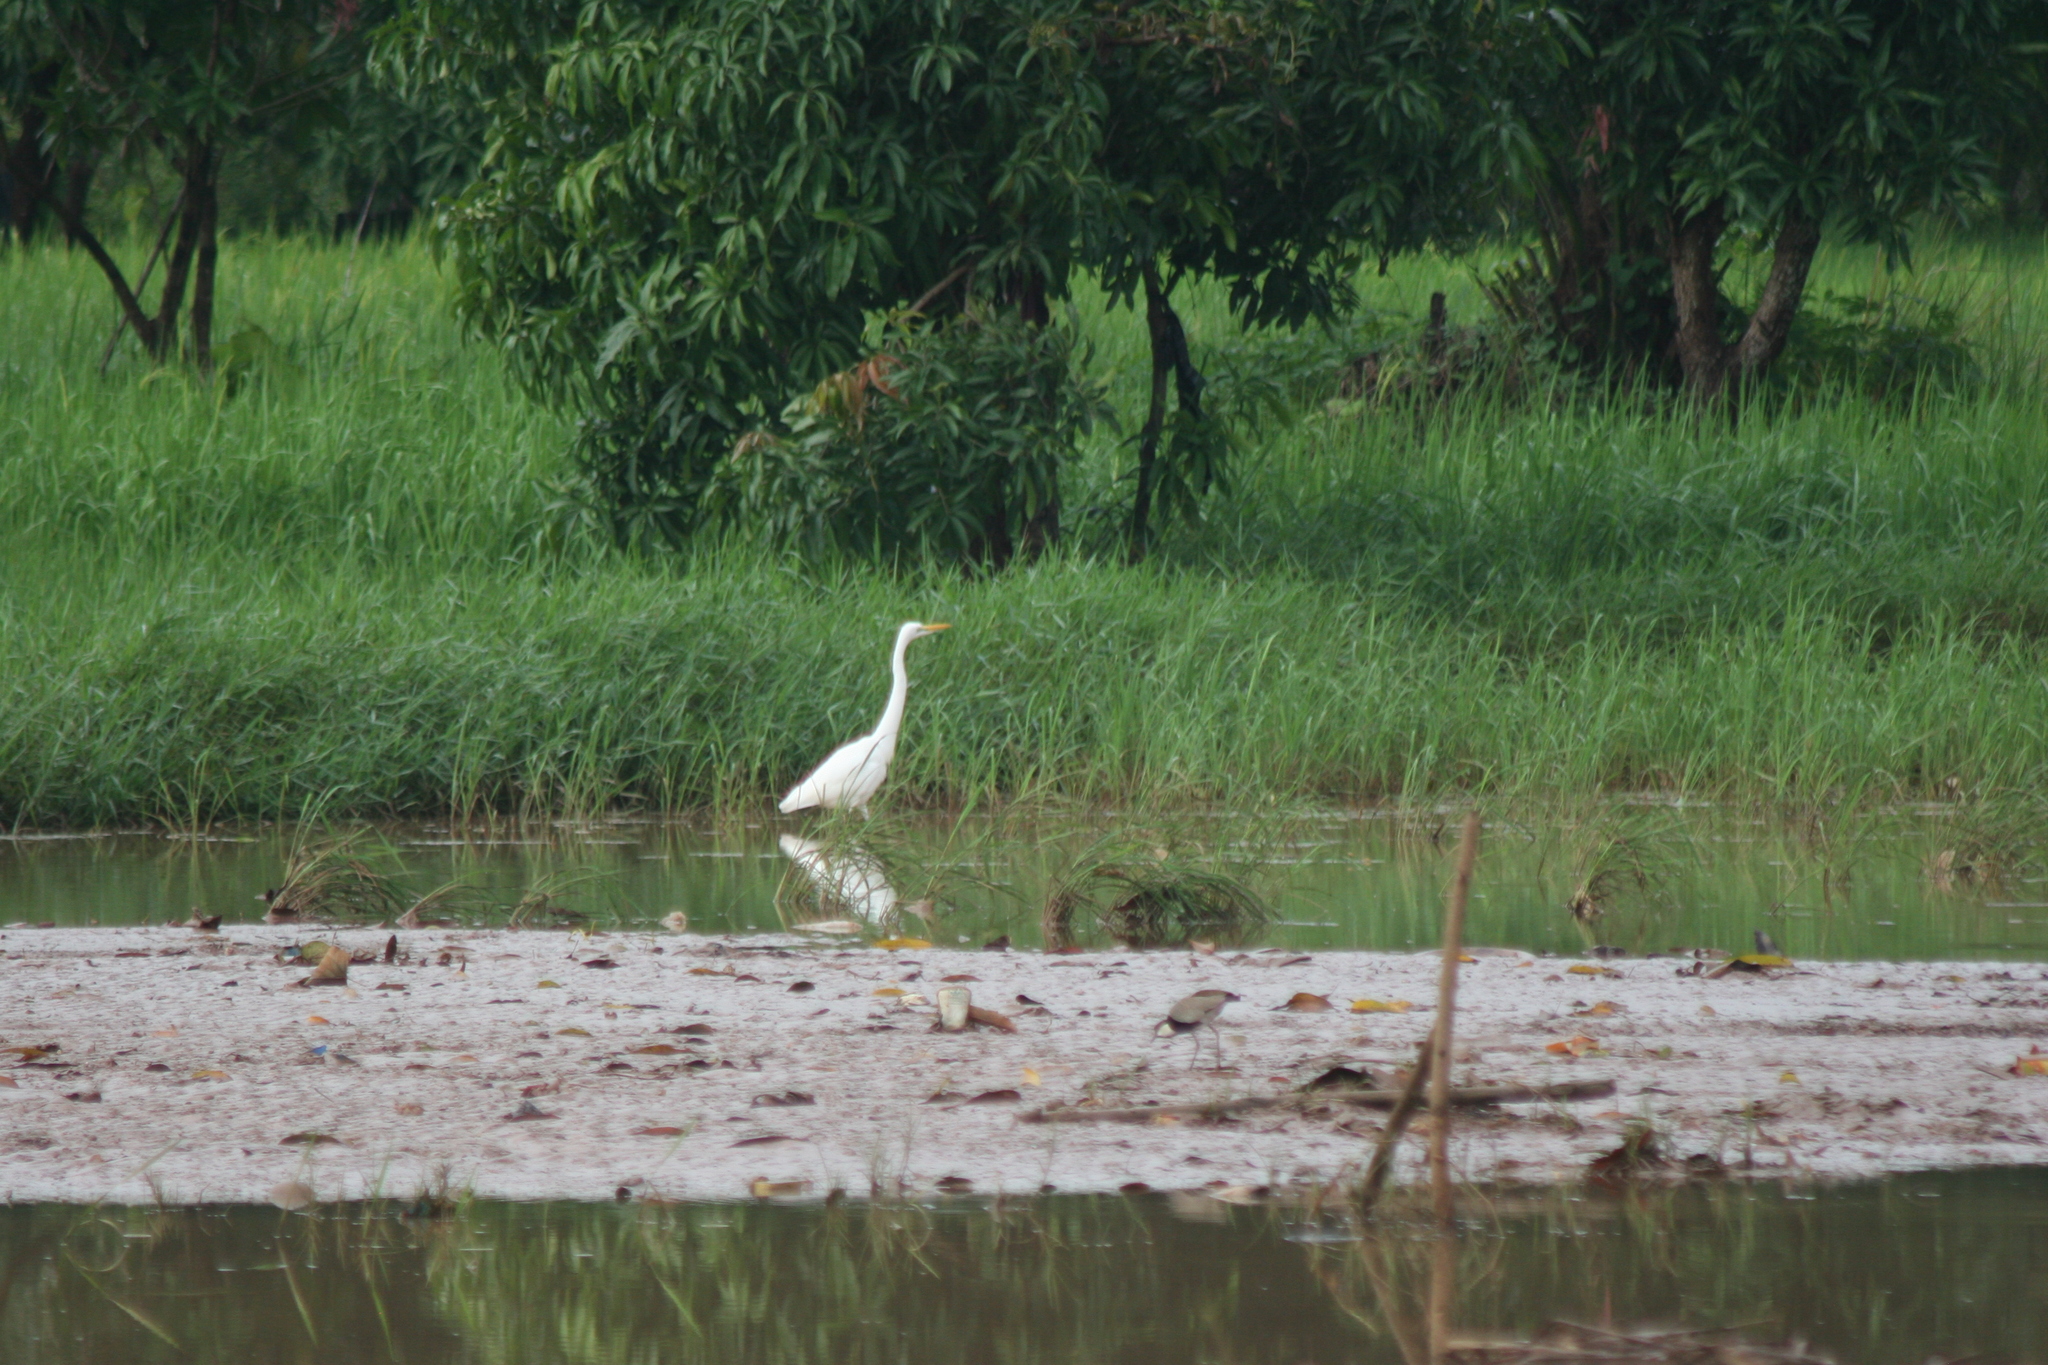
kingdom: Animalia
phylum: Chordata
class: Aves
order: Pelecaniformes
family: Ardeidae
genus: Ardea
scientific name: Ardea alba
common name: Great egret
